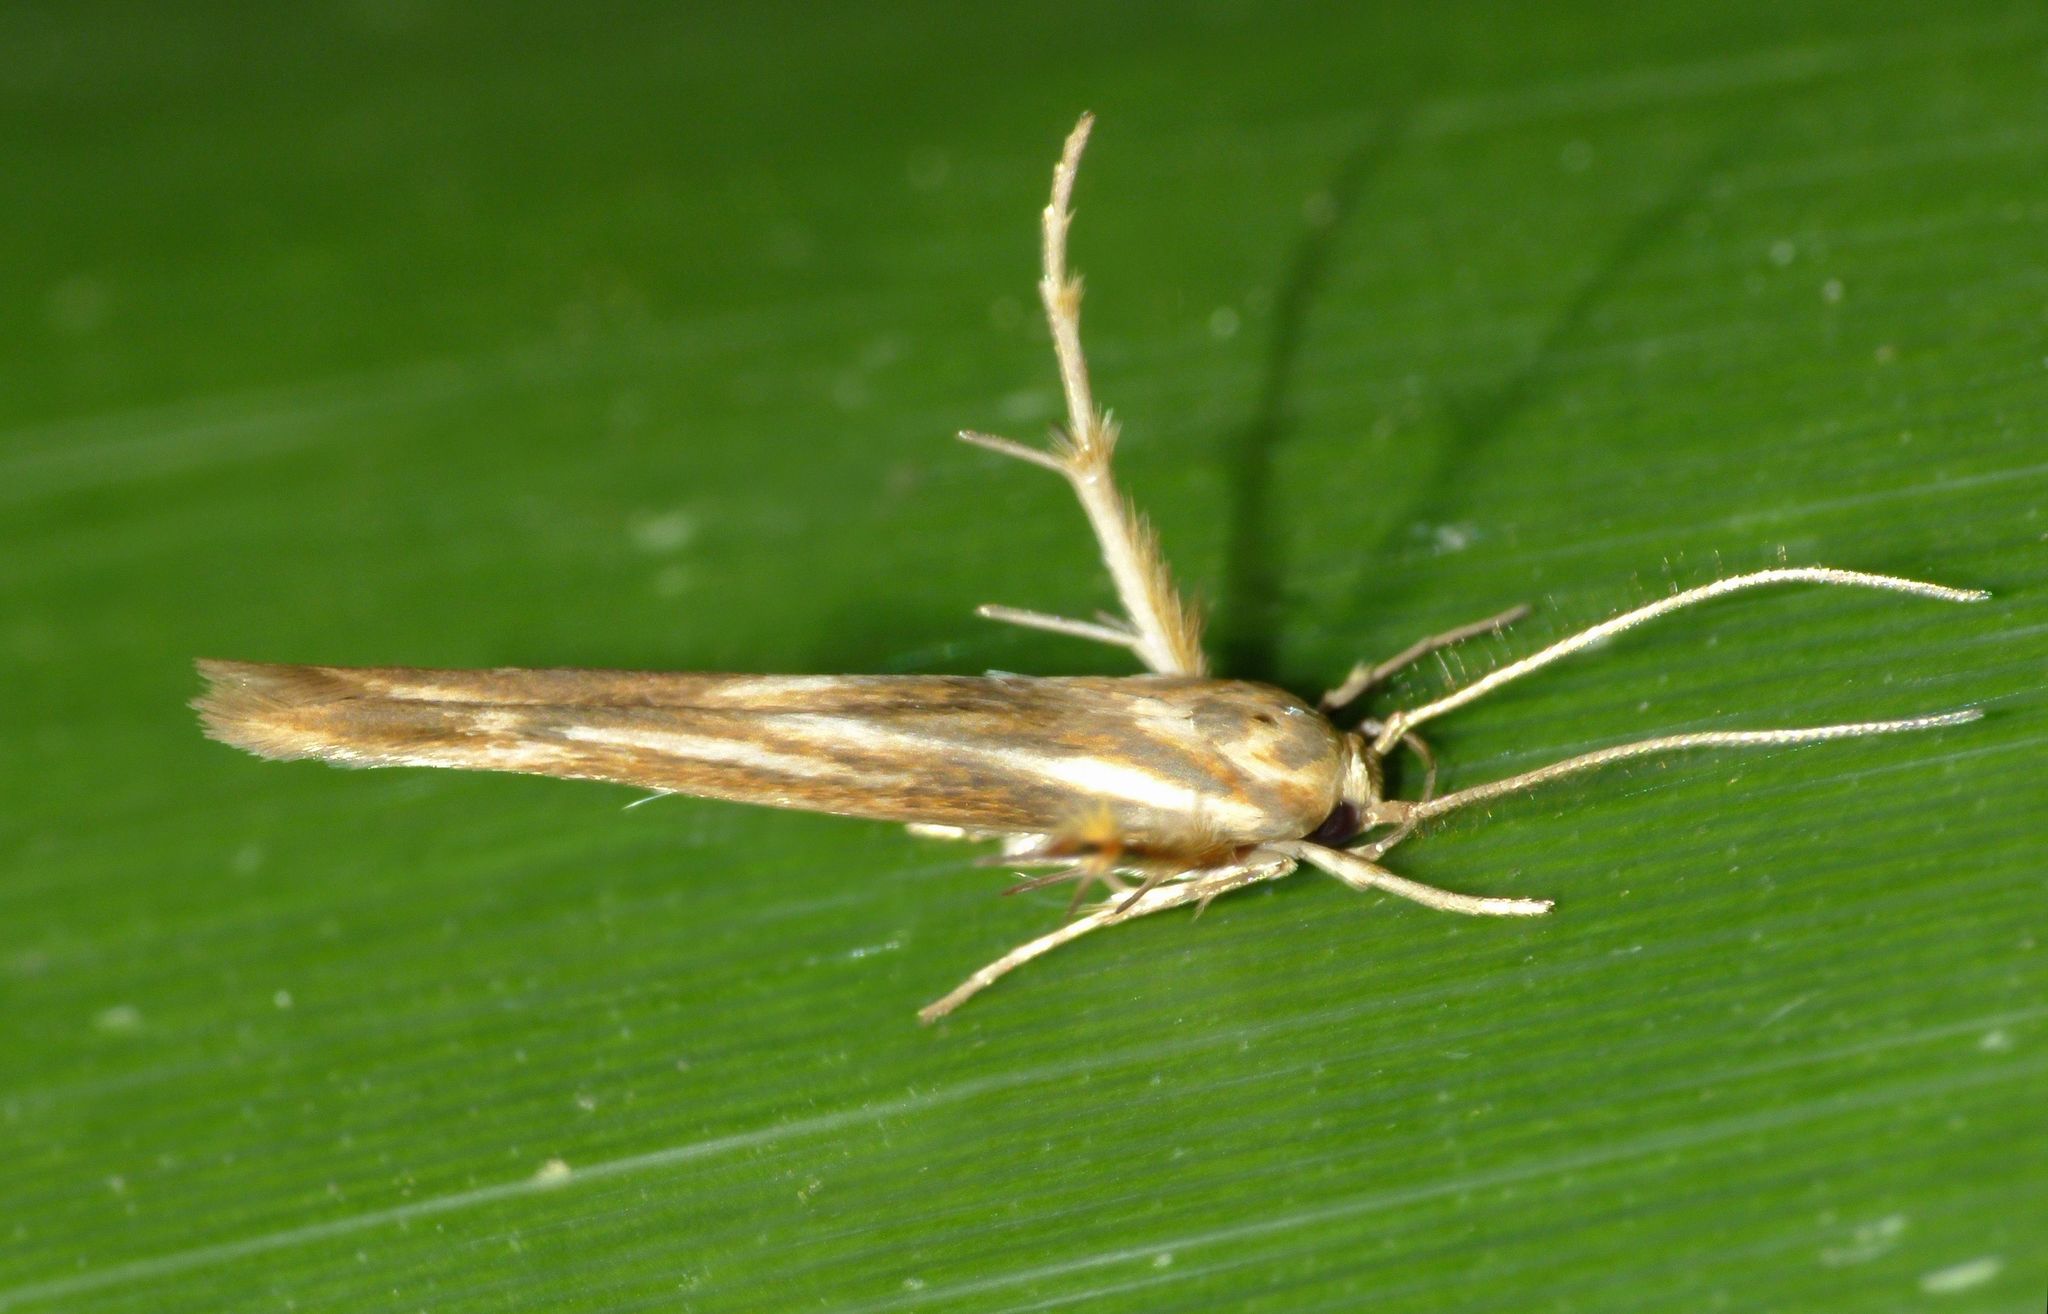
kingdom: Animalia
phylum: Arthropoda
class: Insecta
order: Lepidoptera
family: Stathmopodidae
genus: Stathmopoda
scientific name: Stathmopoda aposema
